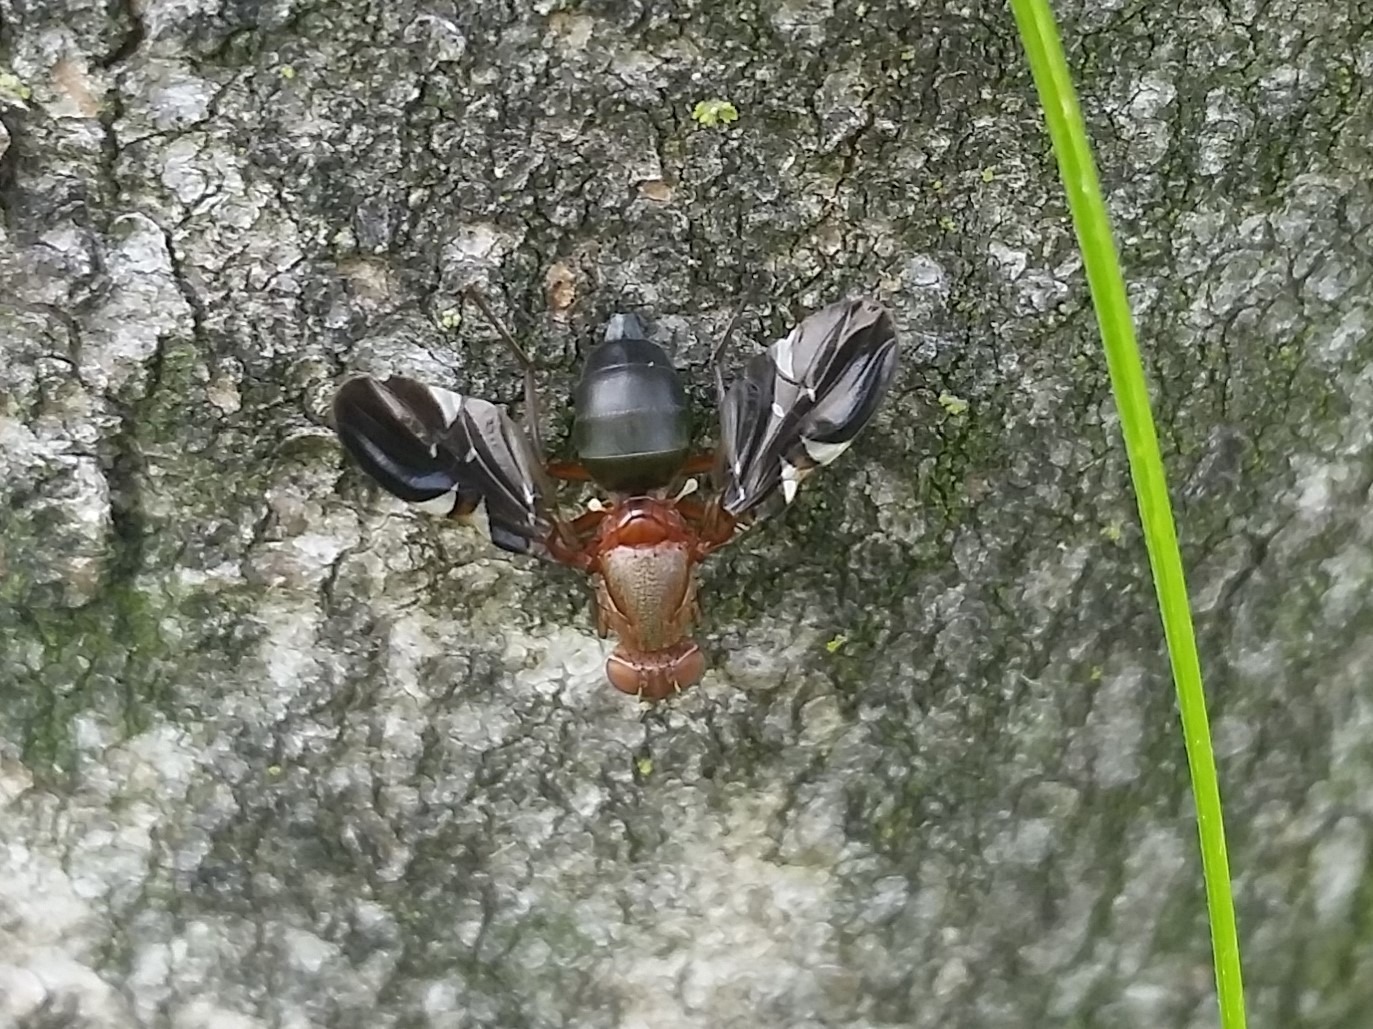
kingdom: Animalia
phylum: Arthropoda
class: Insecta
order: Diptera
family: Ulidiidae
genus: Delphinia
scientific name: Delphinia picta
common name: Common picture-winged fly
